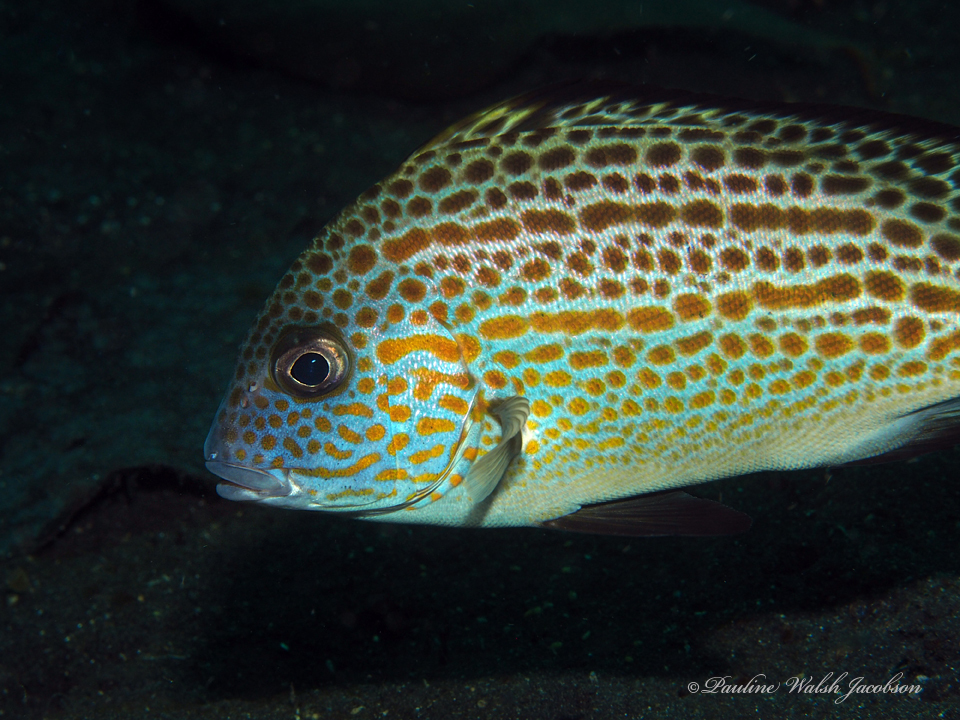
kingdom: Animalia
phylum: Chordata
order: Perciformes
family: Haemulidae
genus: Diagramma
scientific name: Diagramma melanacrum
